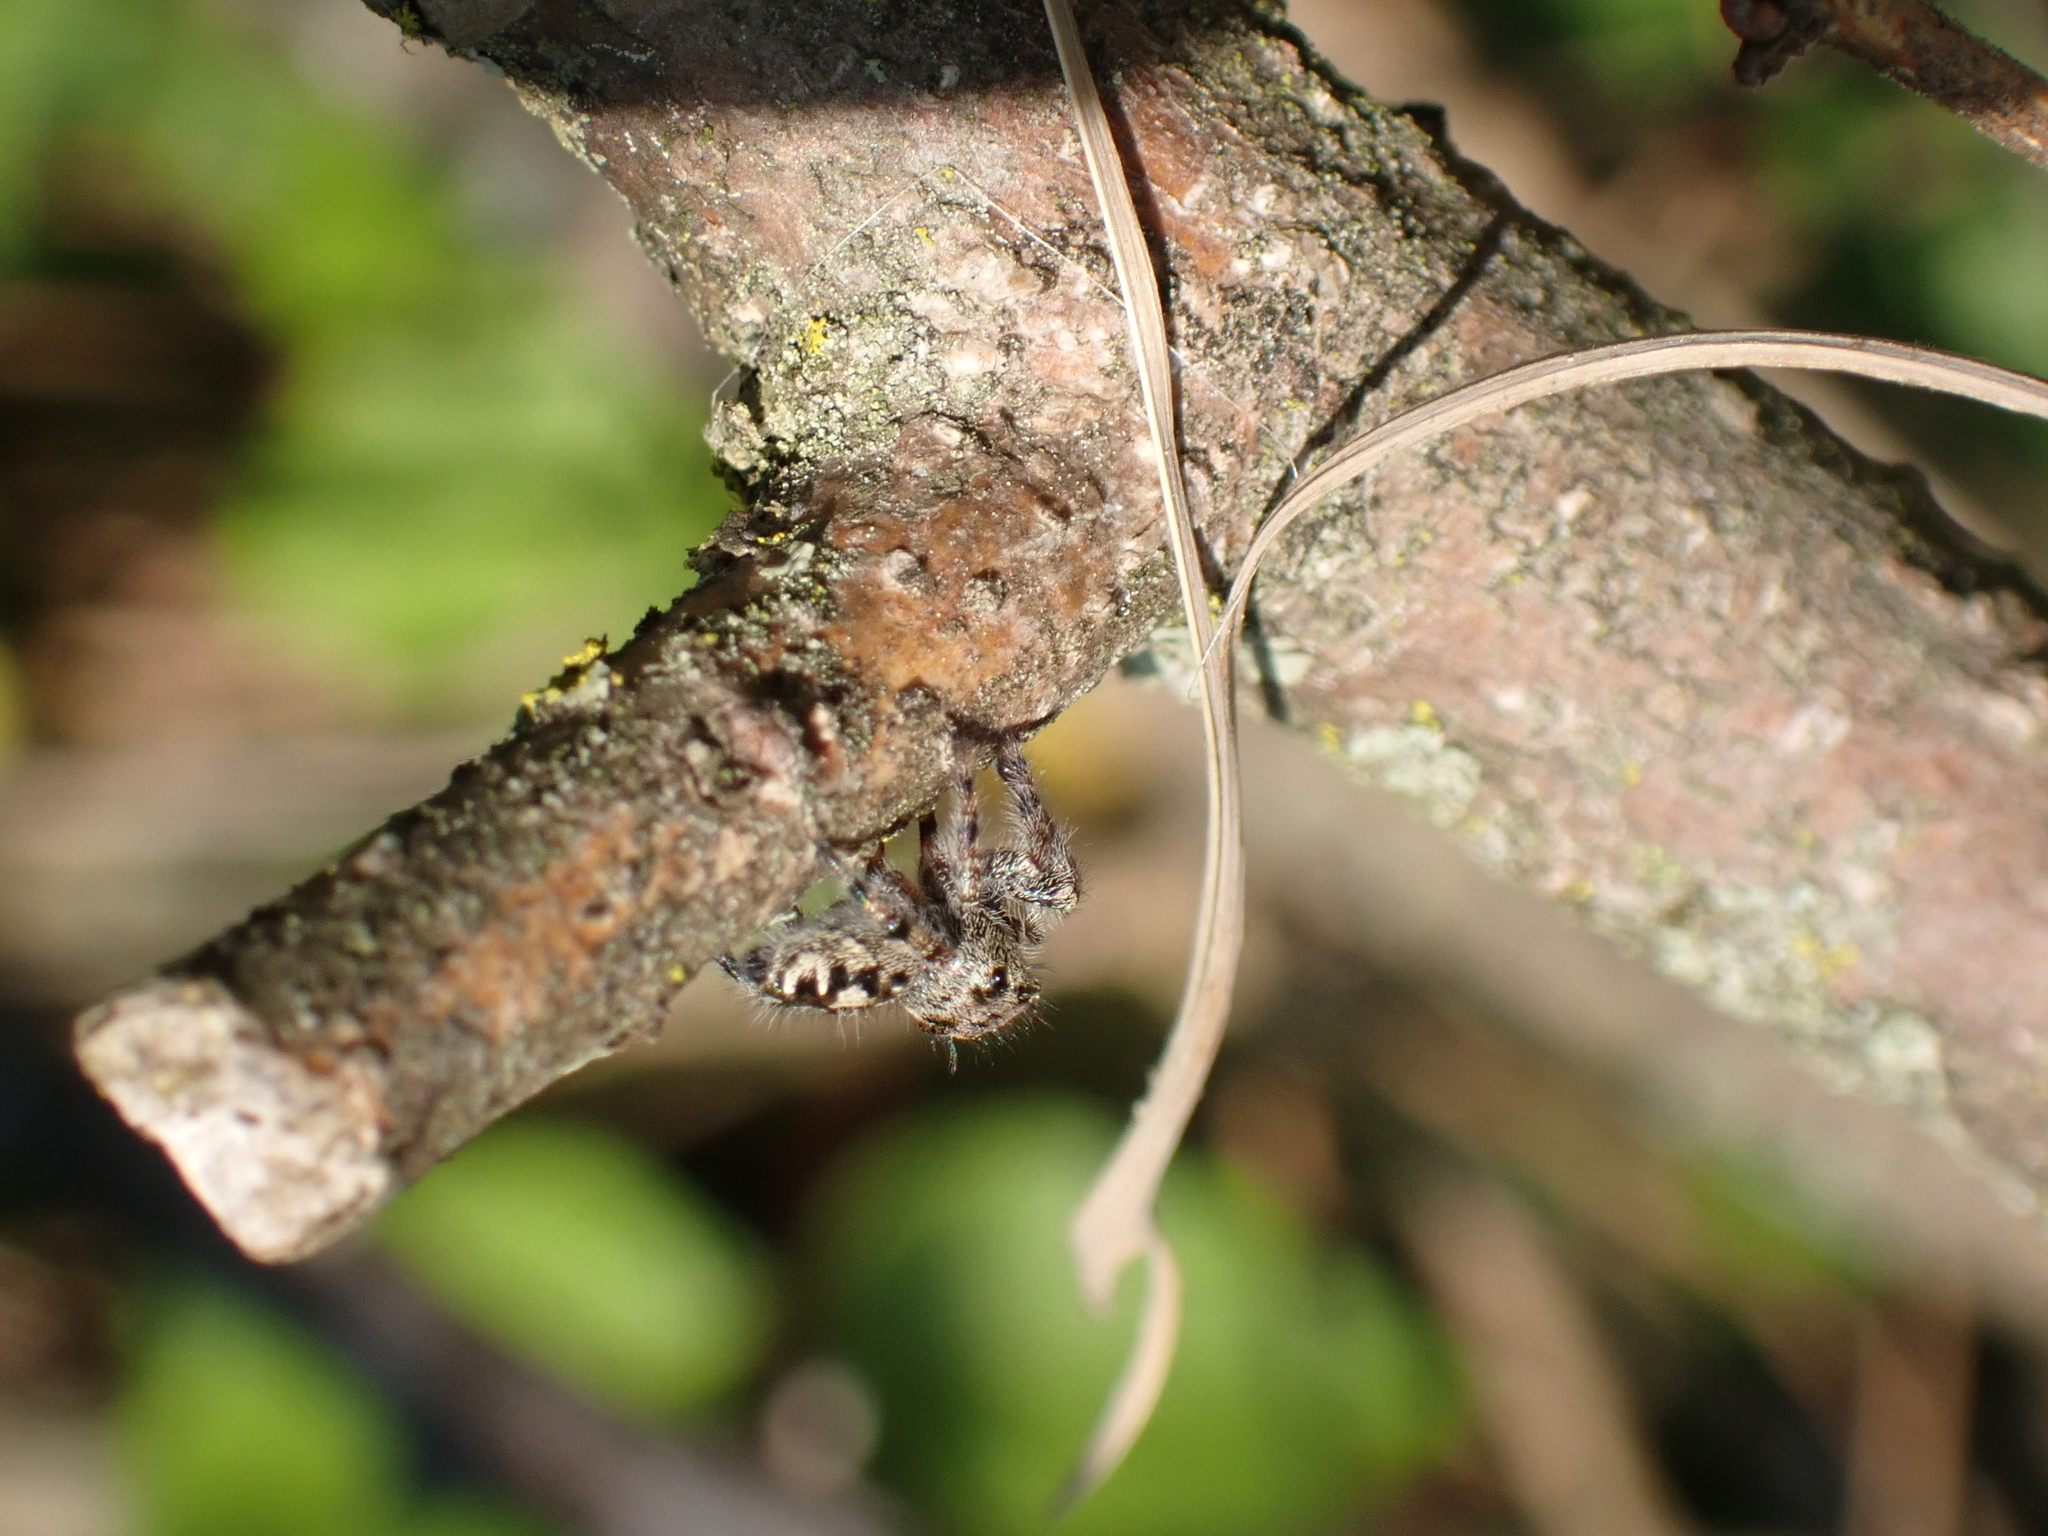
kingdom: Animalia
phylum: Arthropoda
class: Arachnida
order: Araneae
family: Salticidae
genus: Phidippus
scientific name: Phidippus putnami
